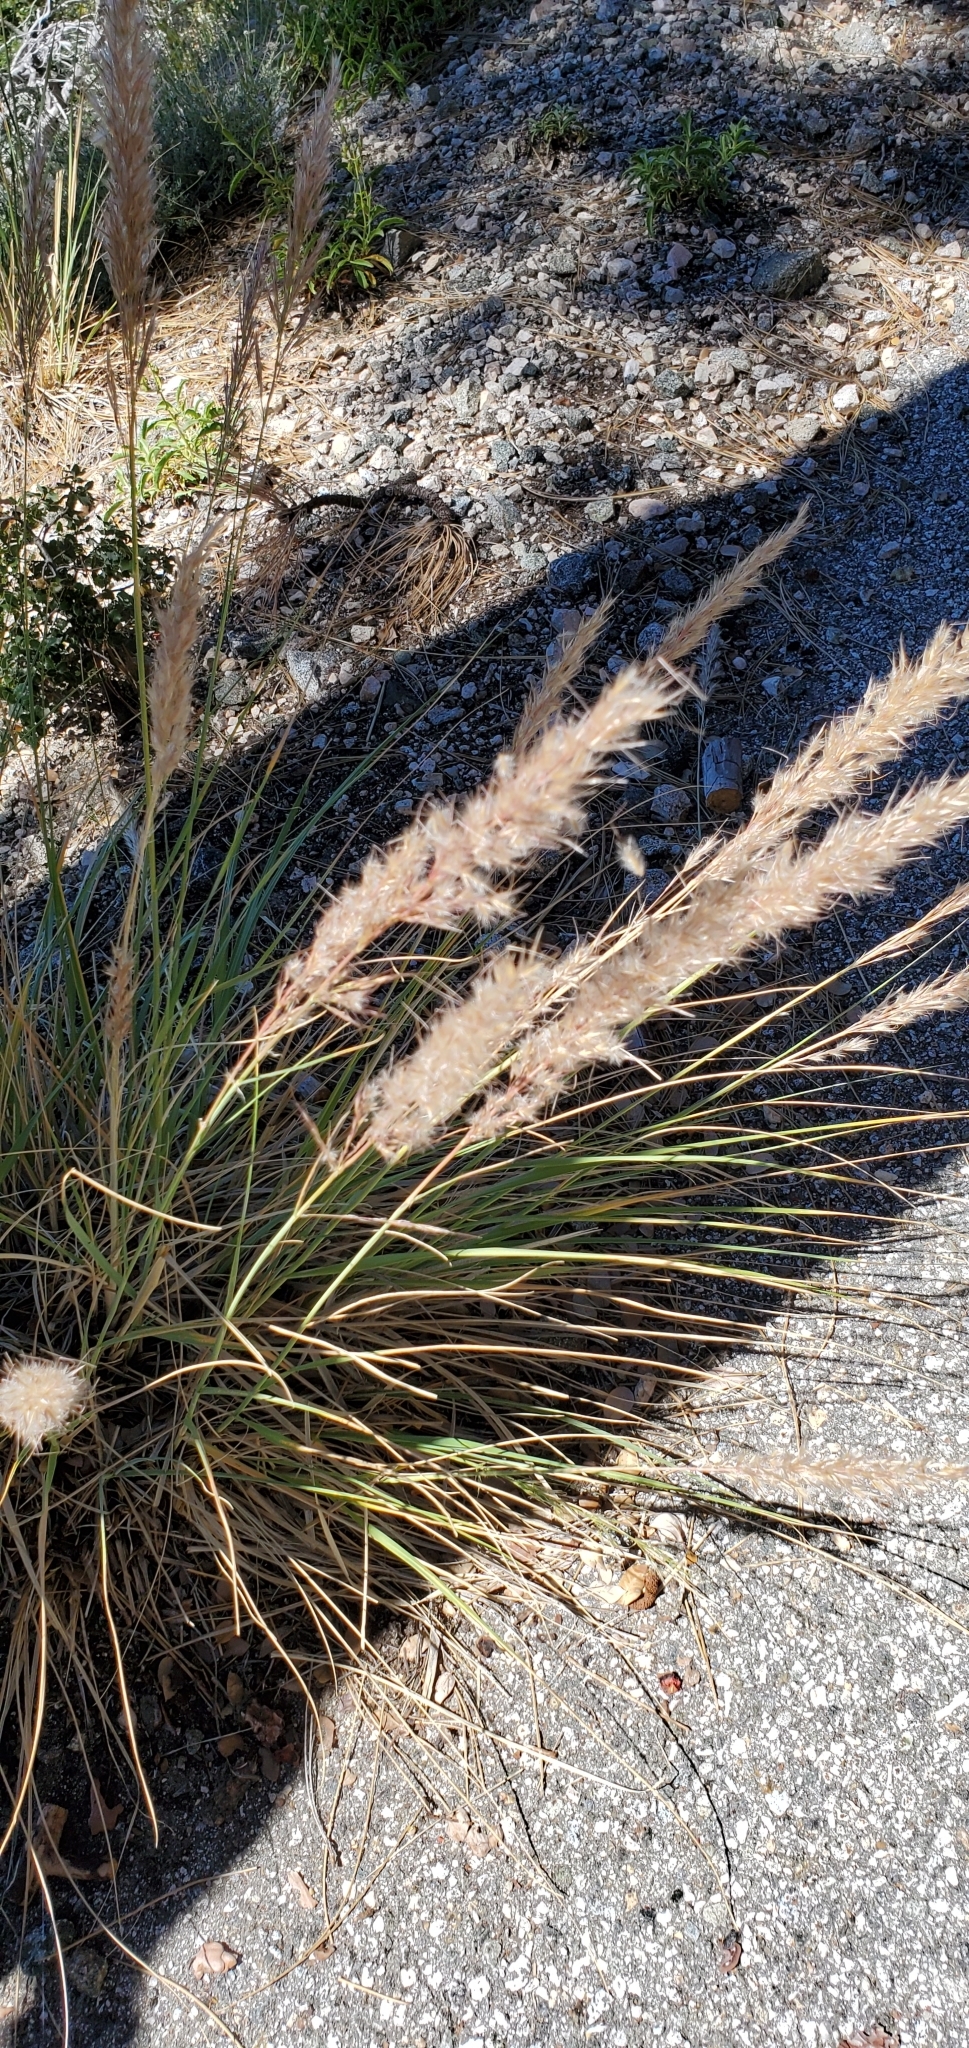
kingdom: Plantae
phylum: Tracheophyta
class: Liliopsida
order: Poales
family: Poaceae
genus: Cenchrus
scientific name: Cenchrus setaceus
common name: Crimson fountaingrass
